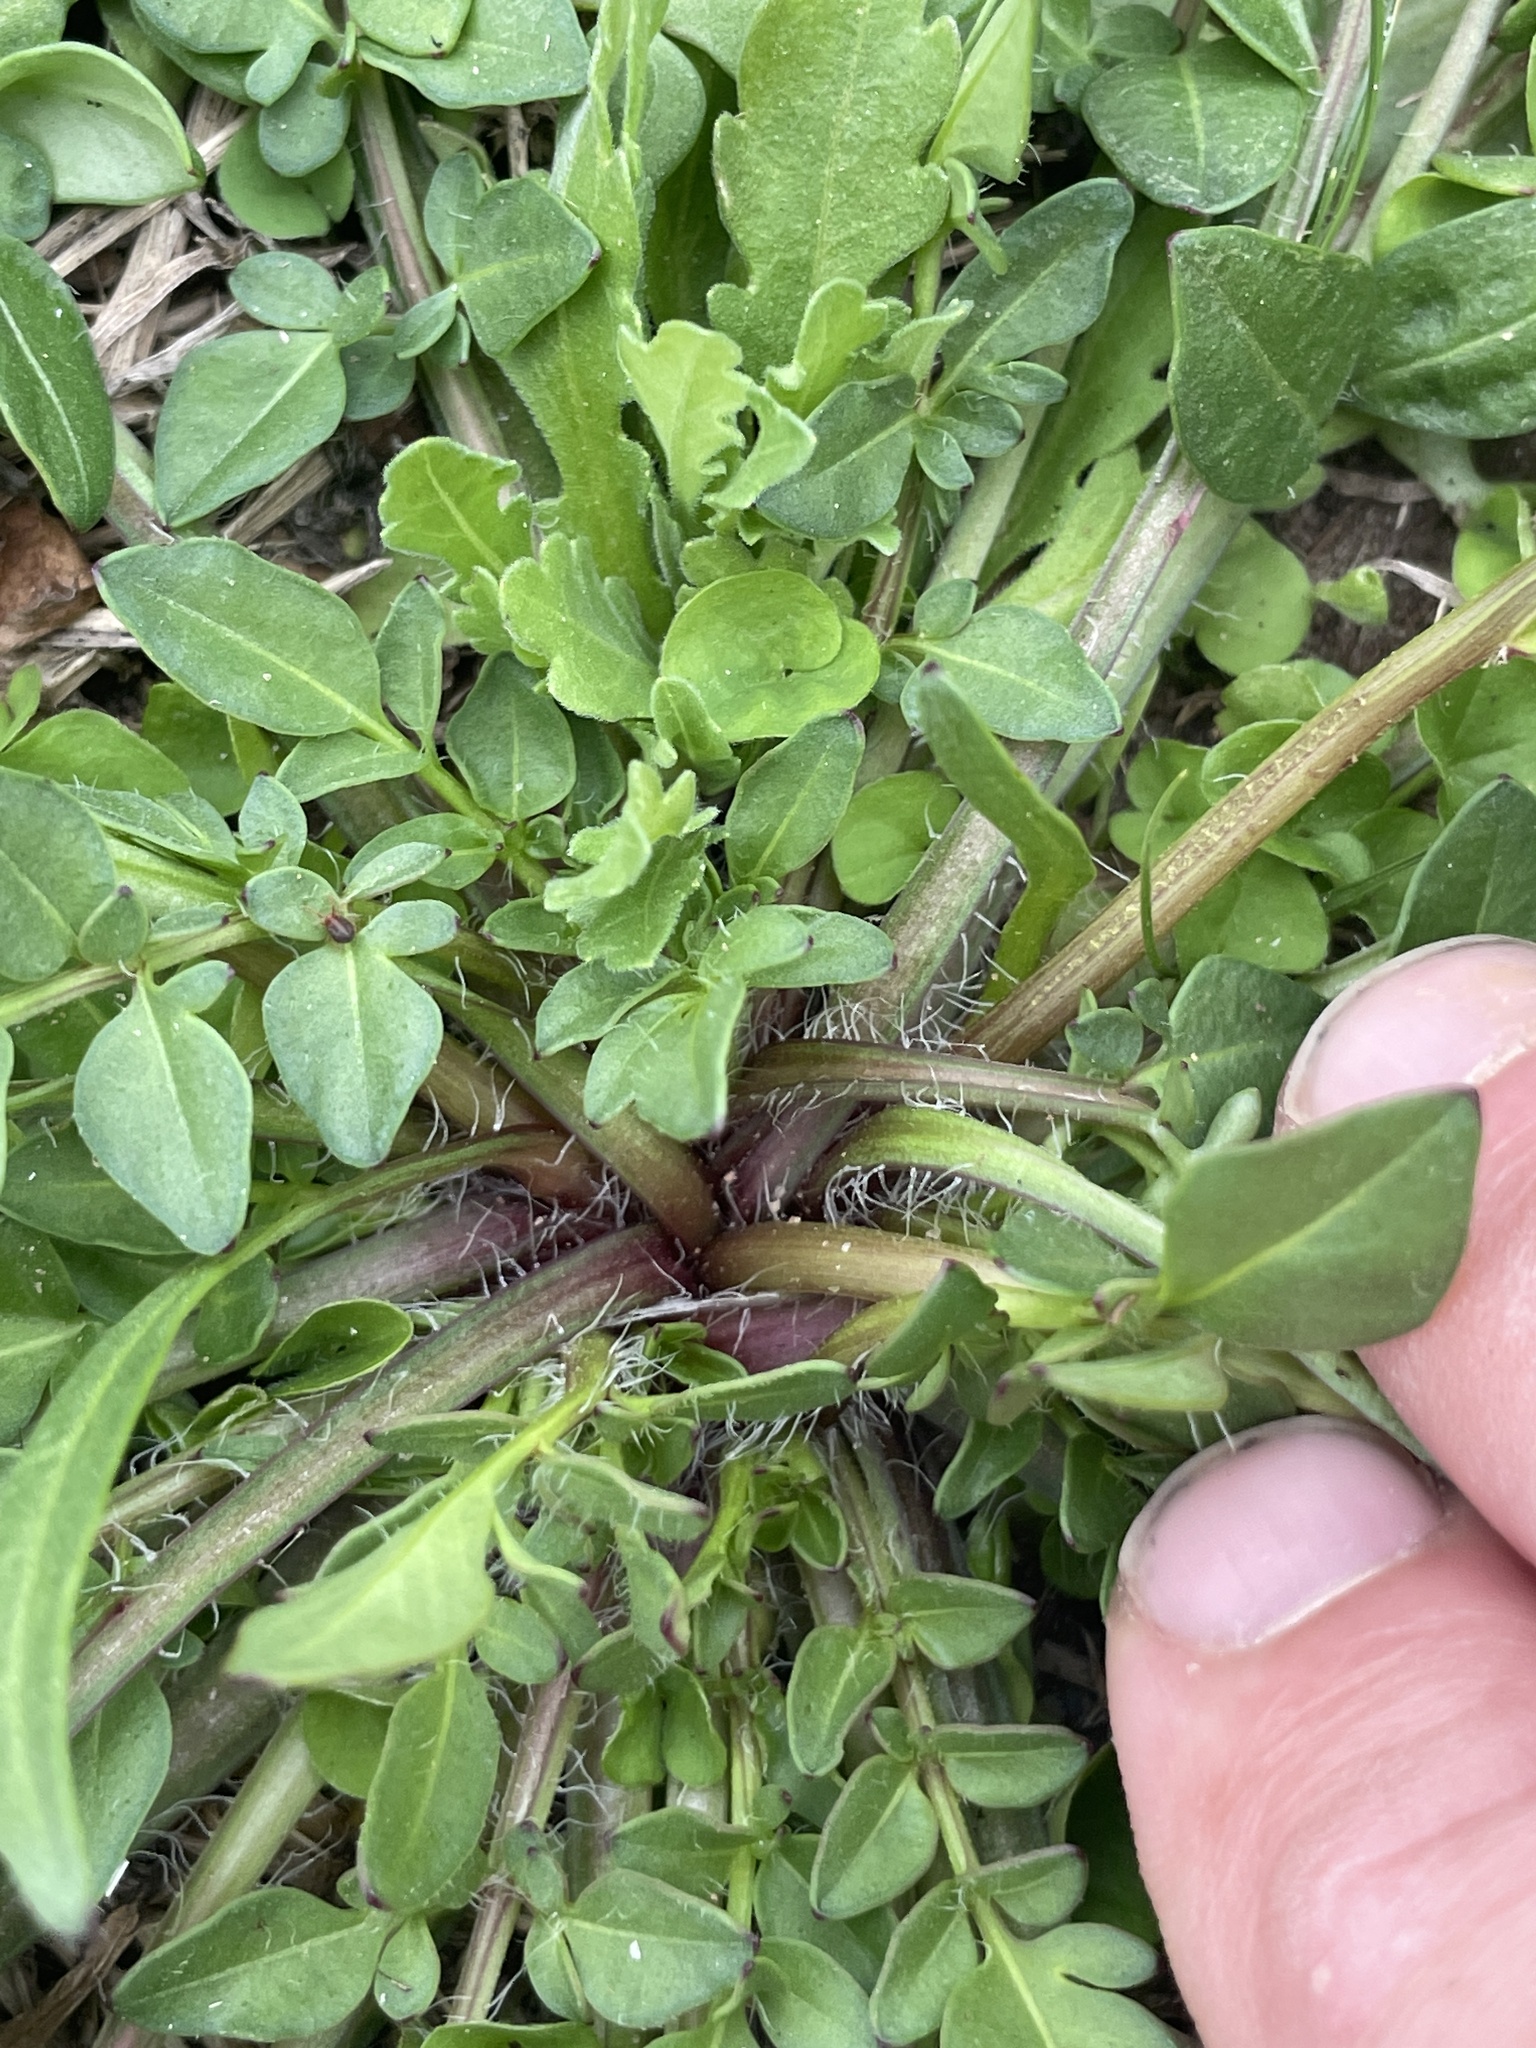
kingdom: Plantae
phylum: Tracheophyta
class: Magnoliopsida
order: Asterales
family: Asteraceae
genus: Coreopsis
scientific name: Coreopsis nuecensis
